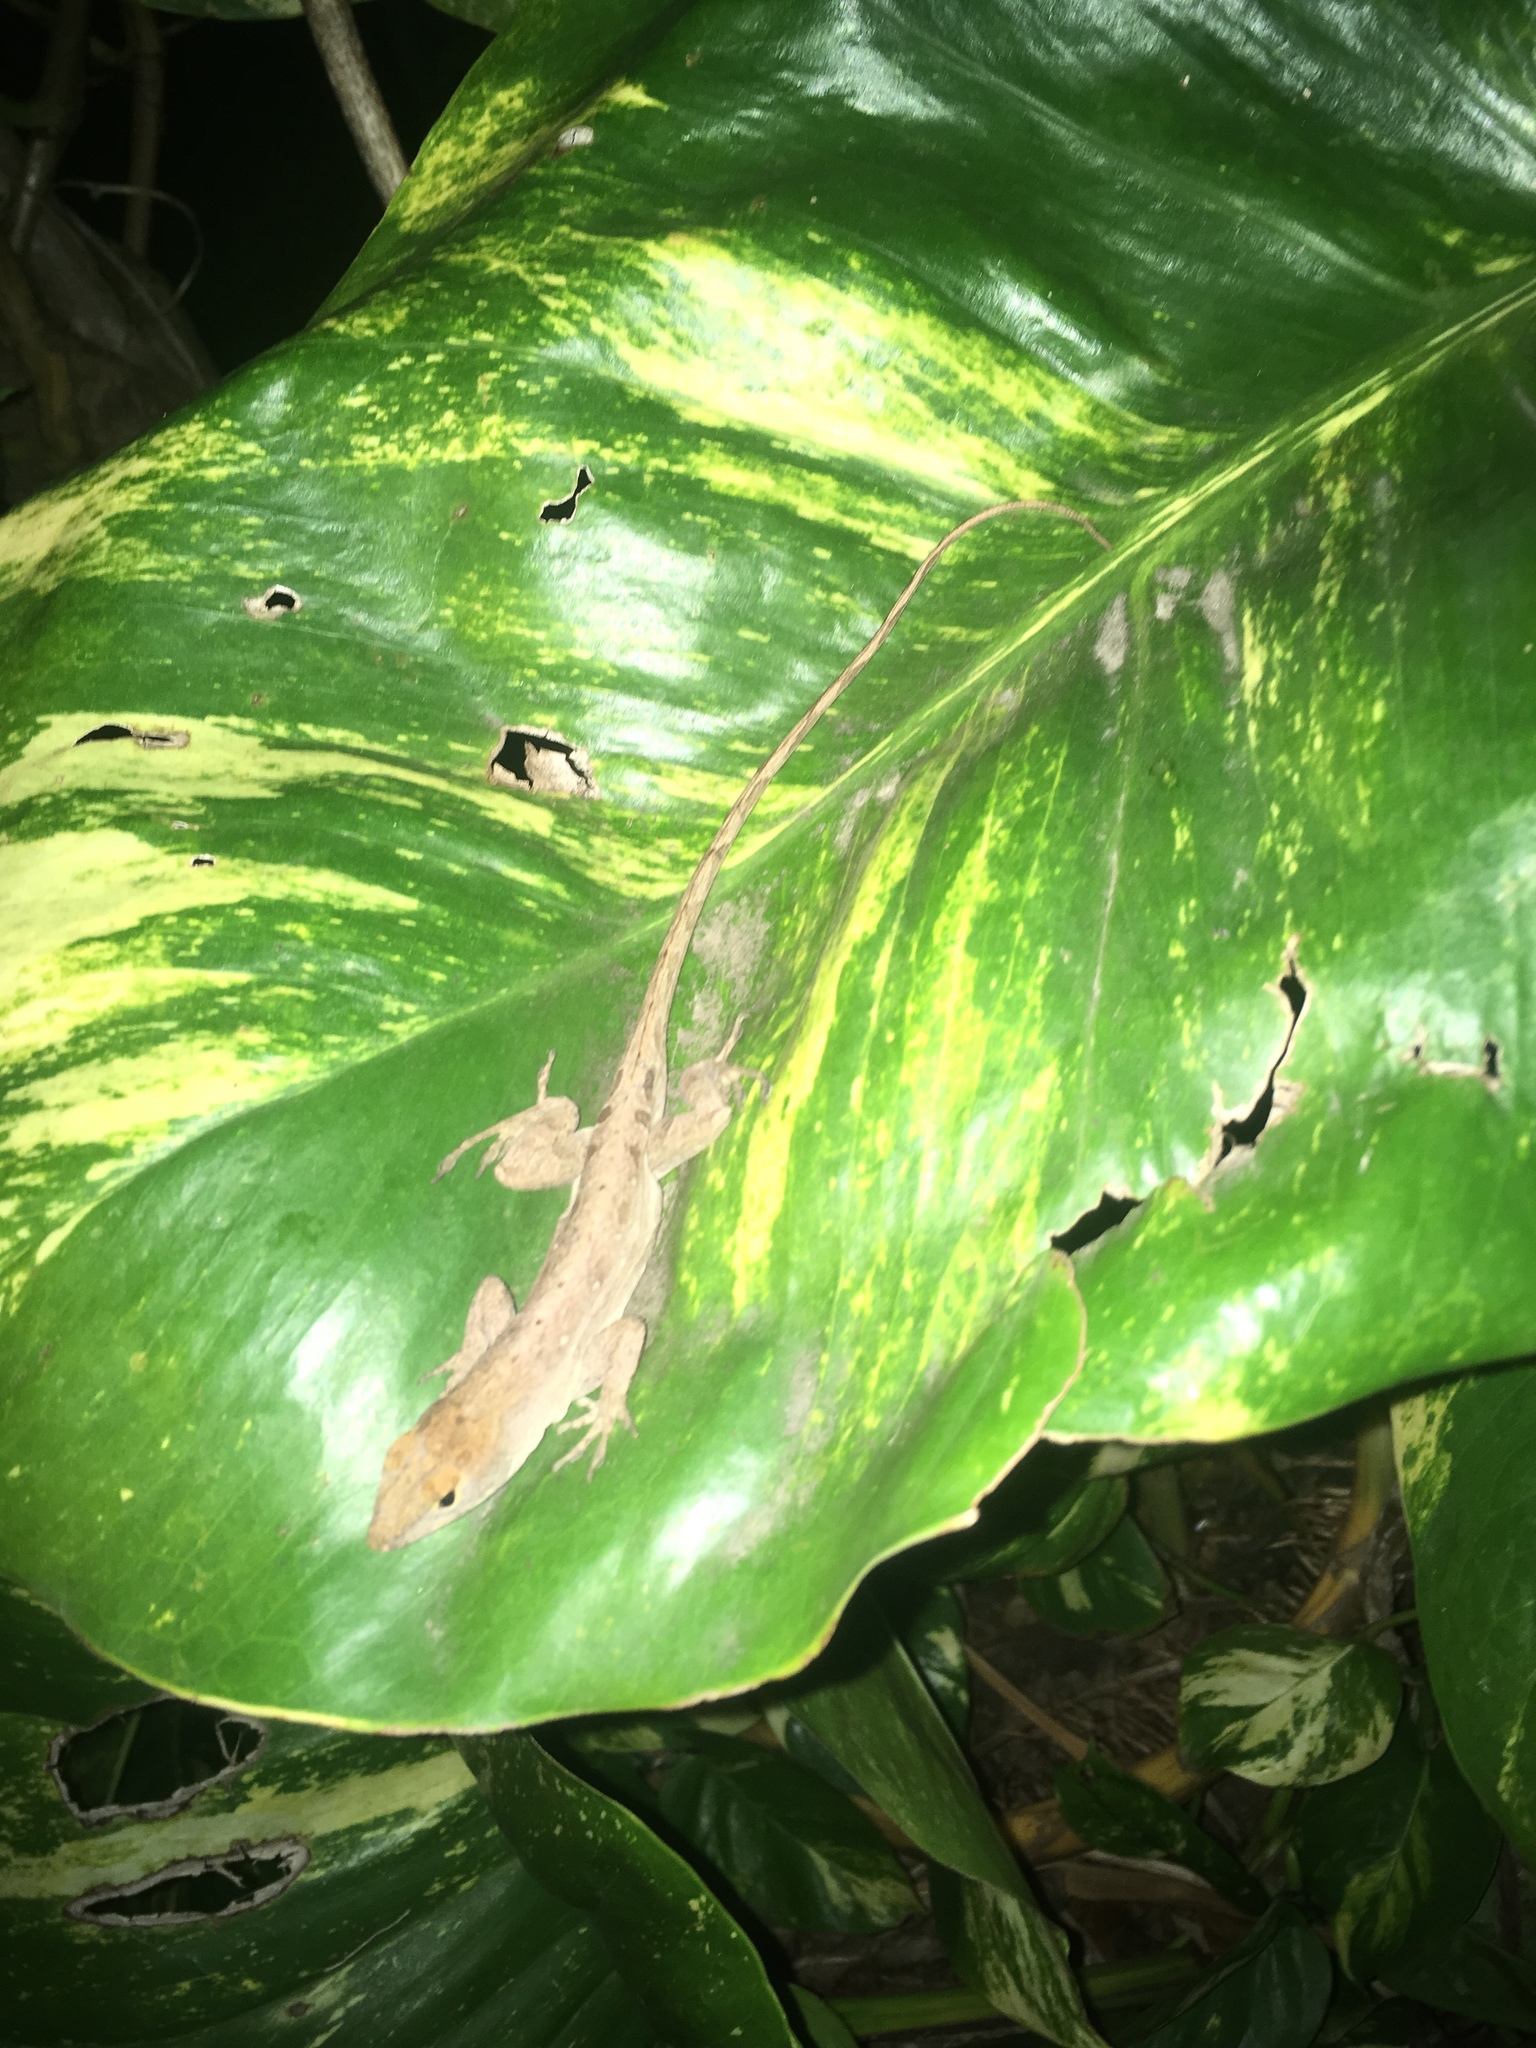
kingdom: Animalia
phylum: Chordata
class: Squamata
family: Dactyloidae
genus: Anolis
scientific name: Anolis sagrei
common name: Brown anole
